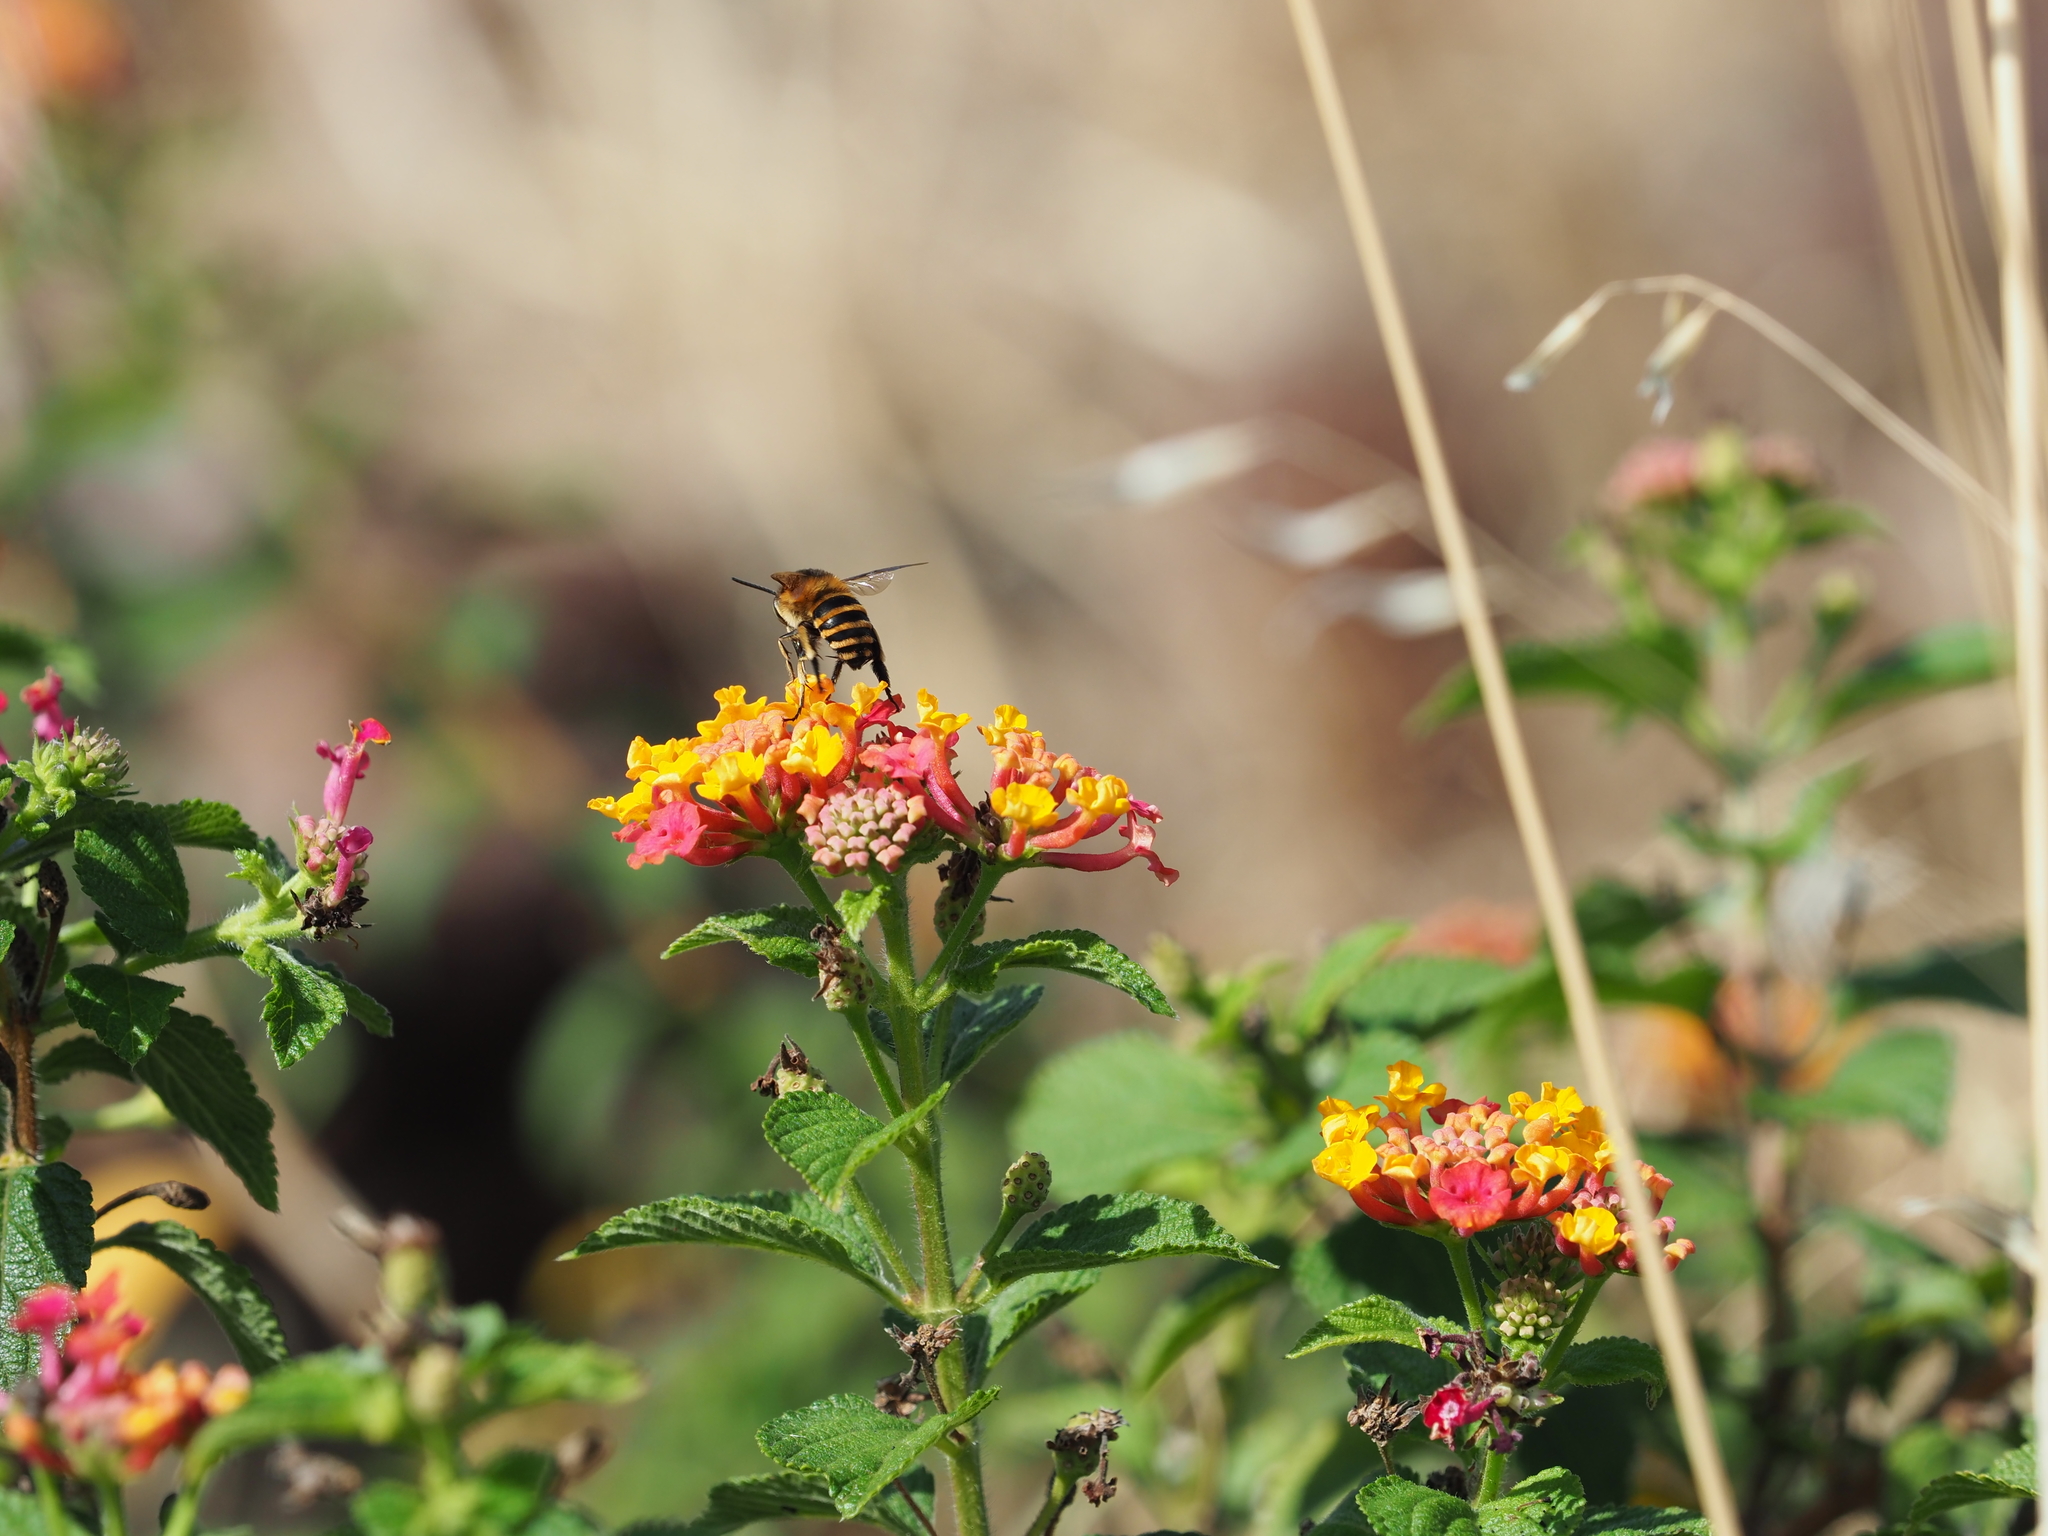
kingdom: Plantae
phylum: Tracheophyta
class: Magnoliopsida
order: Lamiales
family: Verbenaceae
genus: Lantana
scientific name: Lantana camara
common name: Lantana
